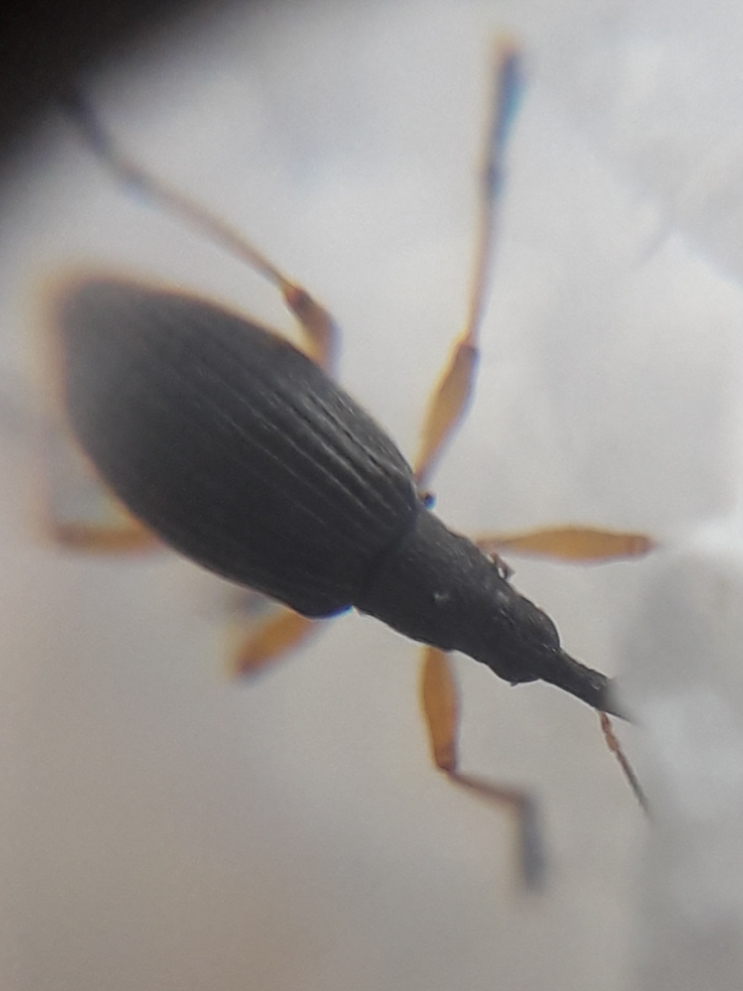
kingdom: Animalia
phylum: Arthropoda
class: Insecta
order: Coleoptera
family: Apionidae
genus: Protapion
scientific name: Protapion fulvipes
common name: White clover seed weevil
